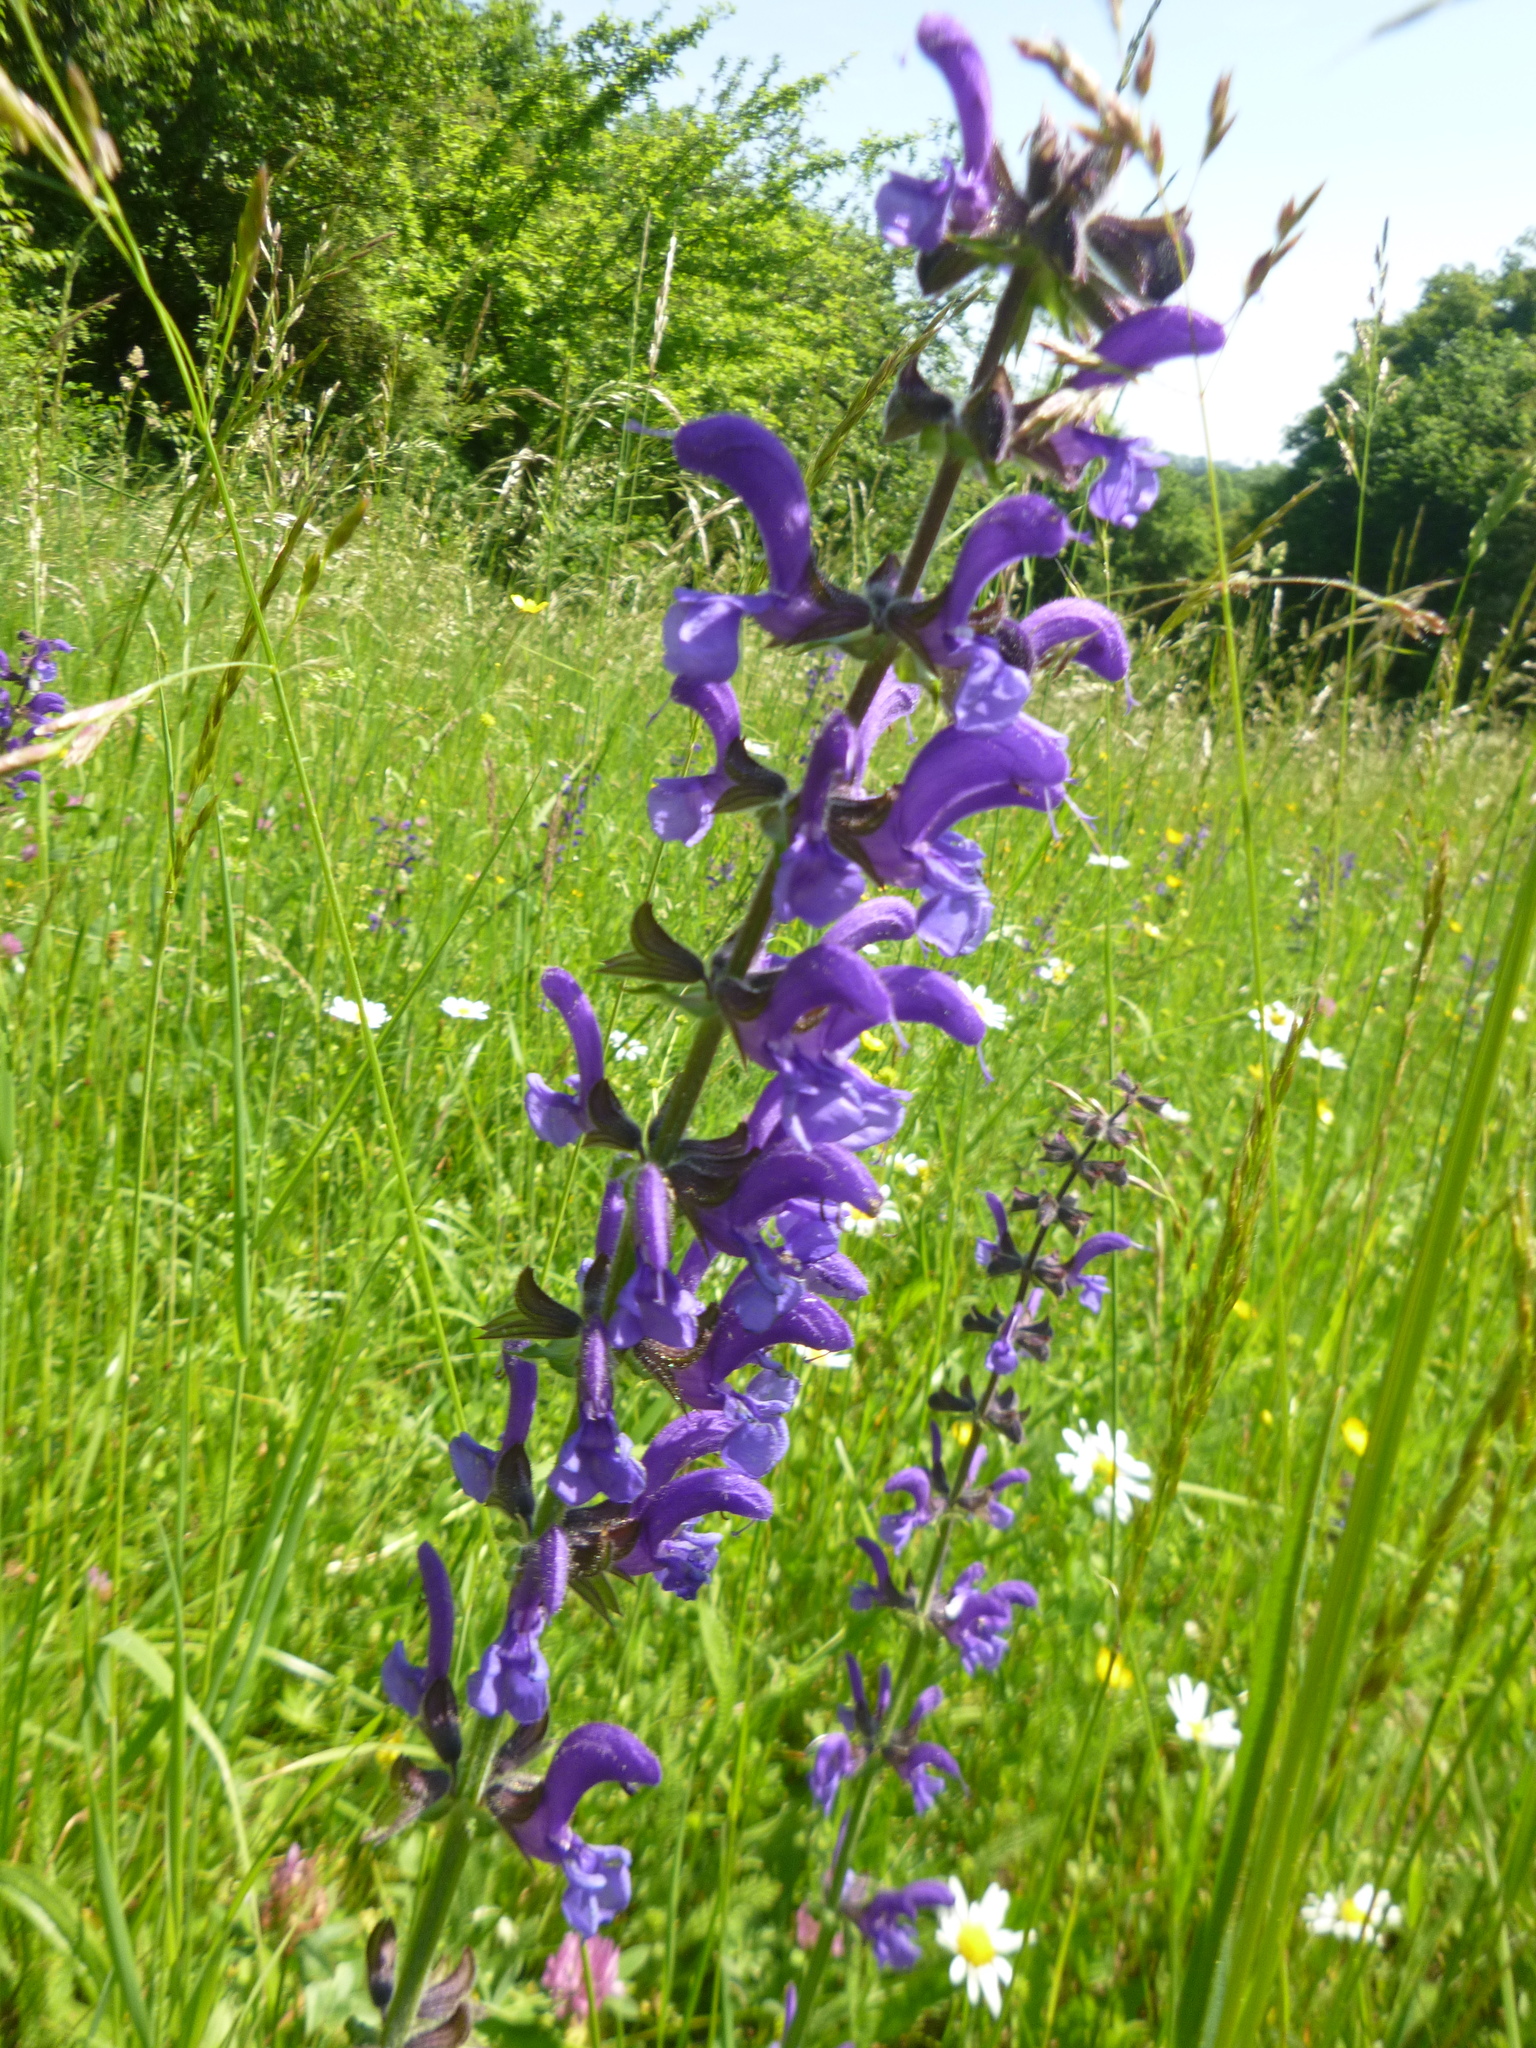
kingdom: Plantae
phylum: Tracheophyta
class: Magnoliopsida
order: Lamiales
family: Lamiaceae
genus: Salvia
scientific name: Salvia pratensis
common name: Meadow sage
